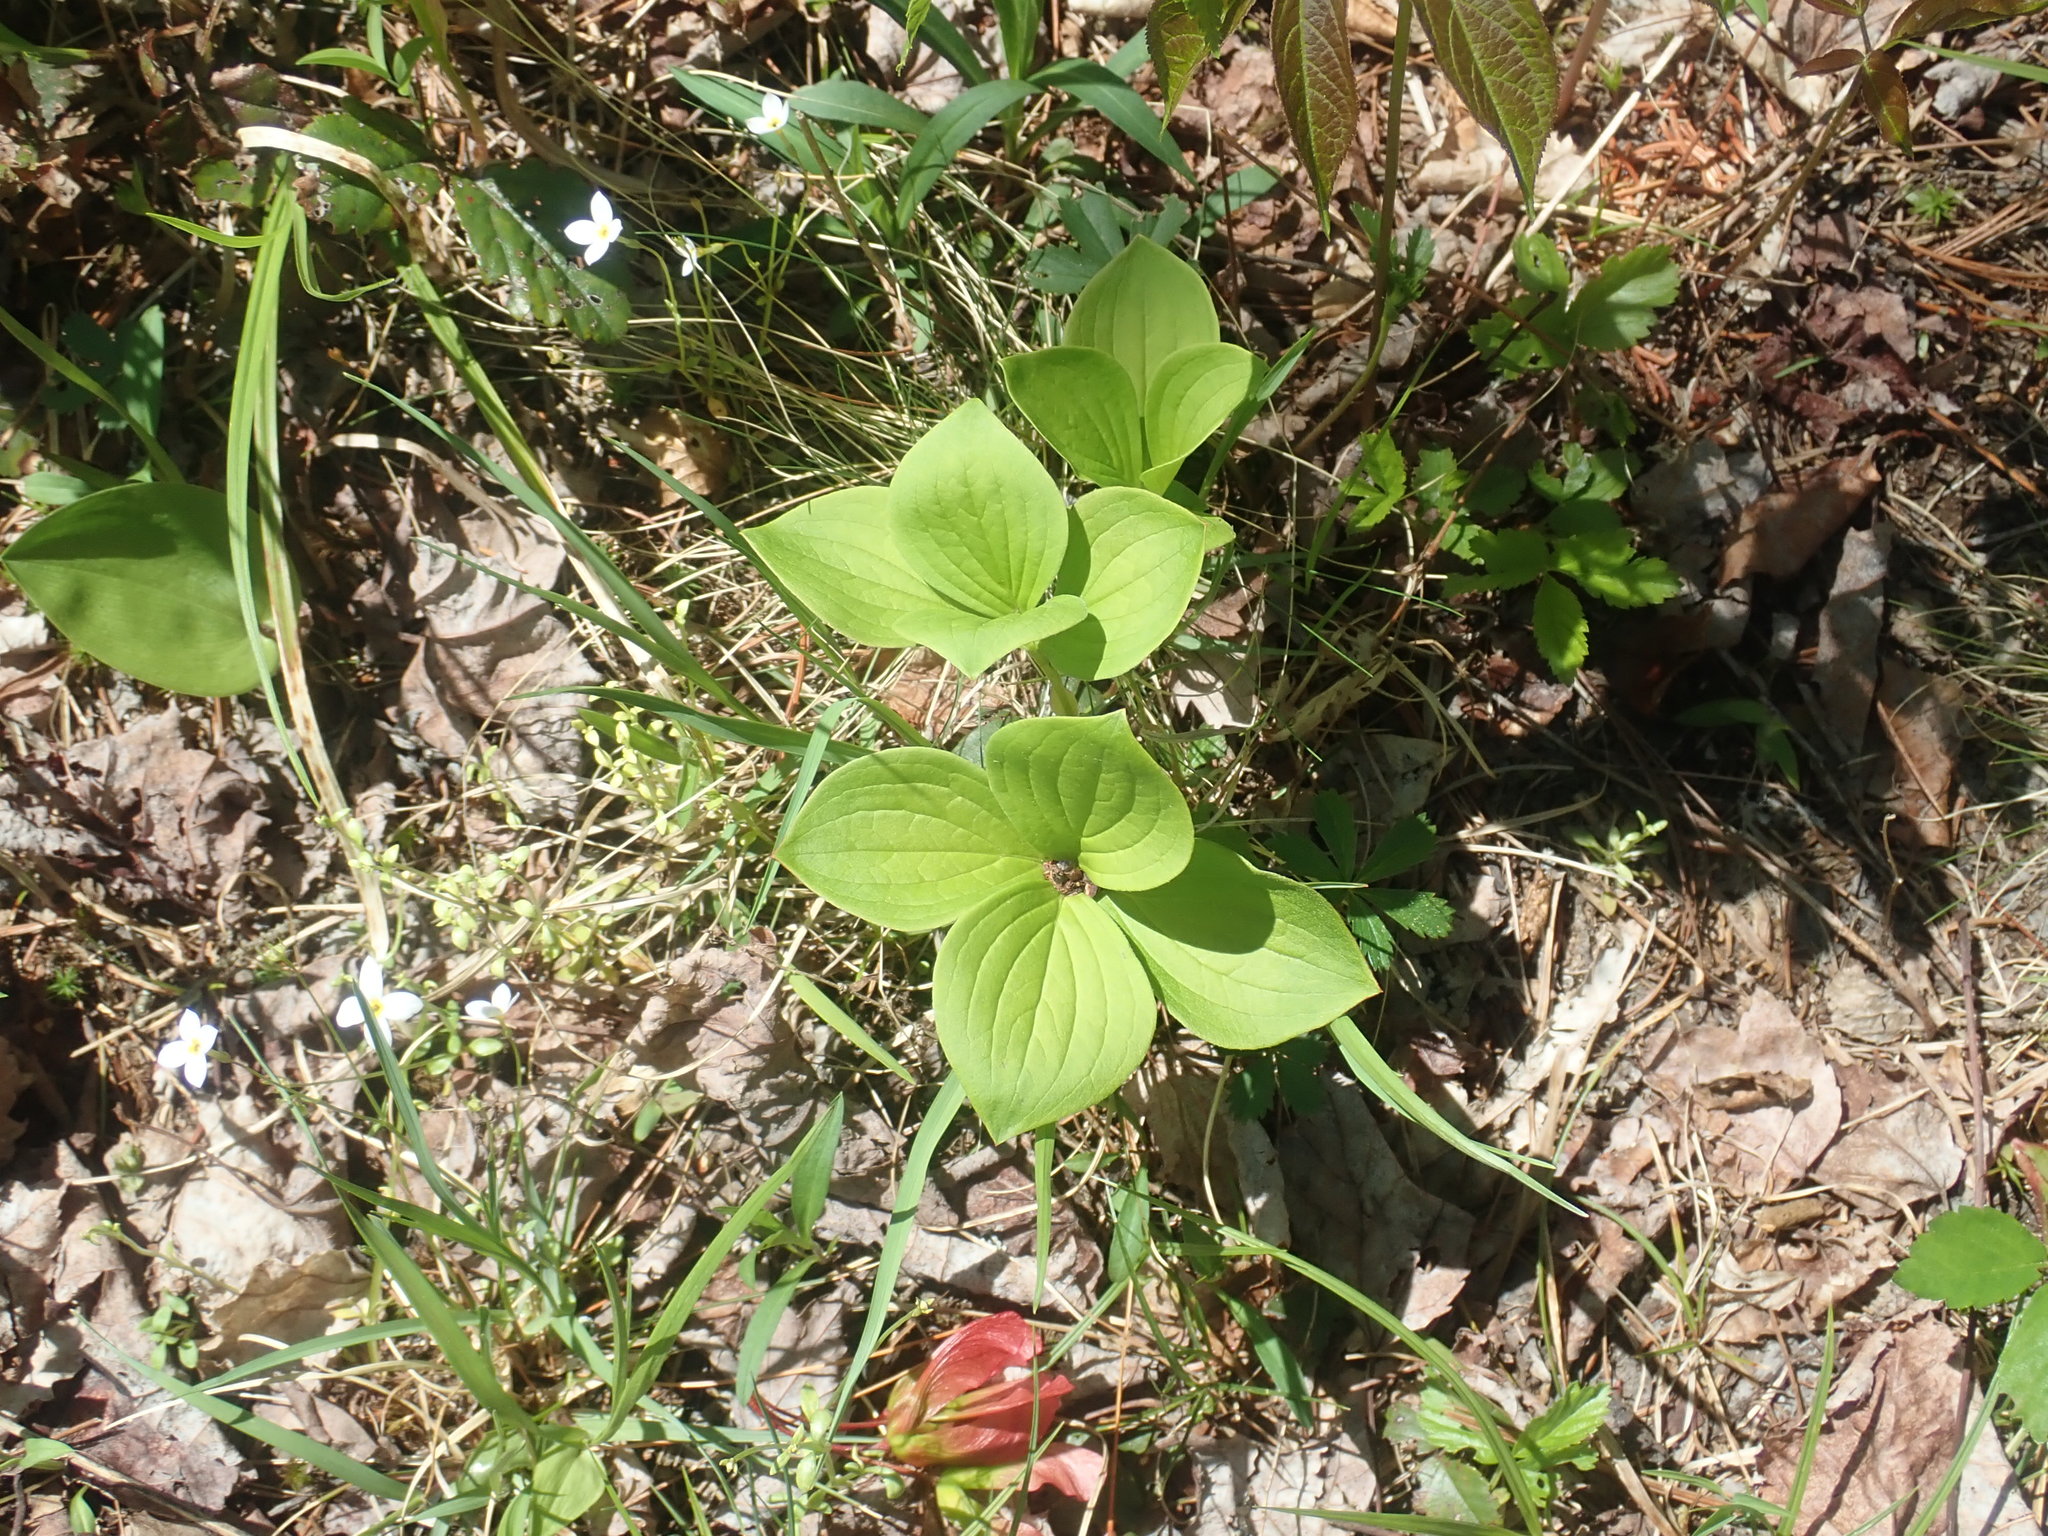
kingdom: Plantae
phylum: Tracheophyta
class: Magnoliopsida
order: Cornales
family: Cornaceae
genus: Cornus
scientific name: Cornus canadensis
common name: Creeping dogwood
